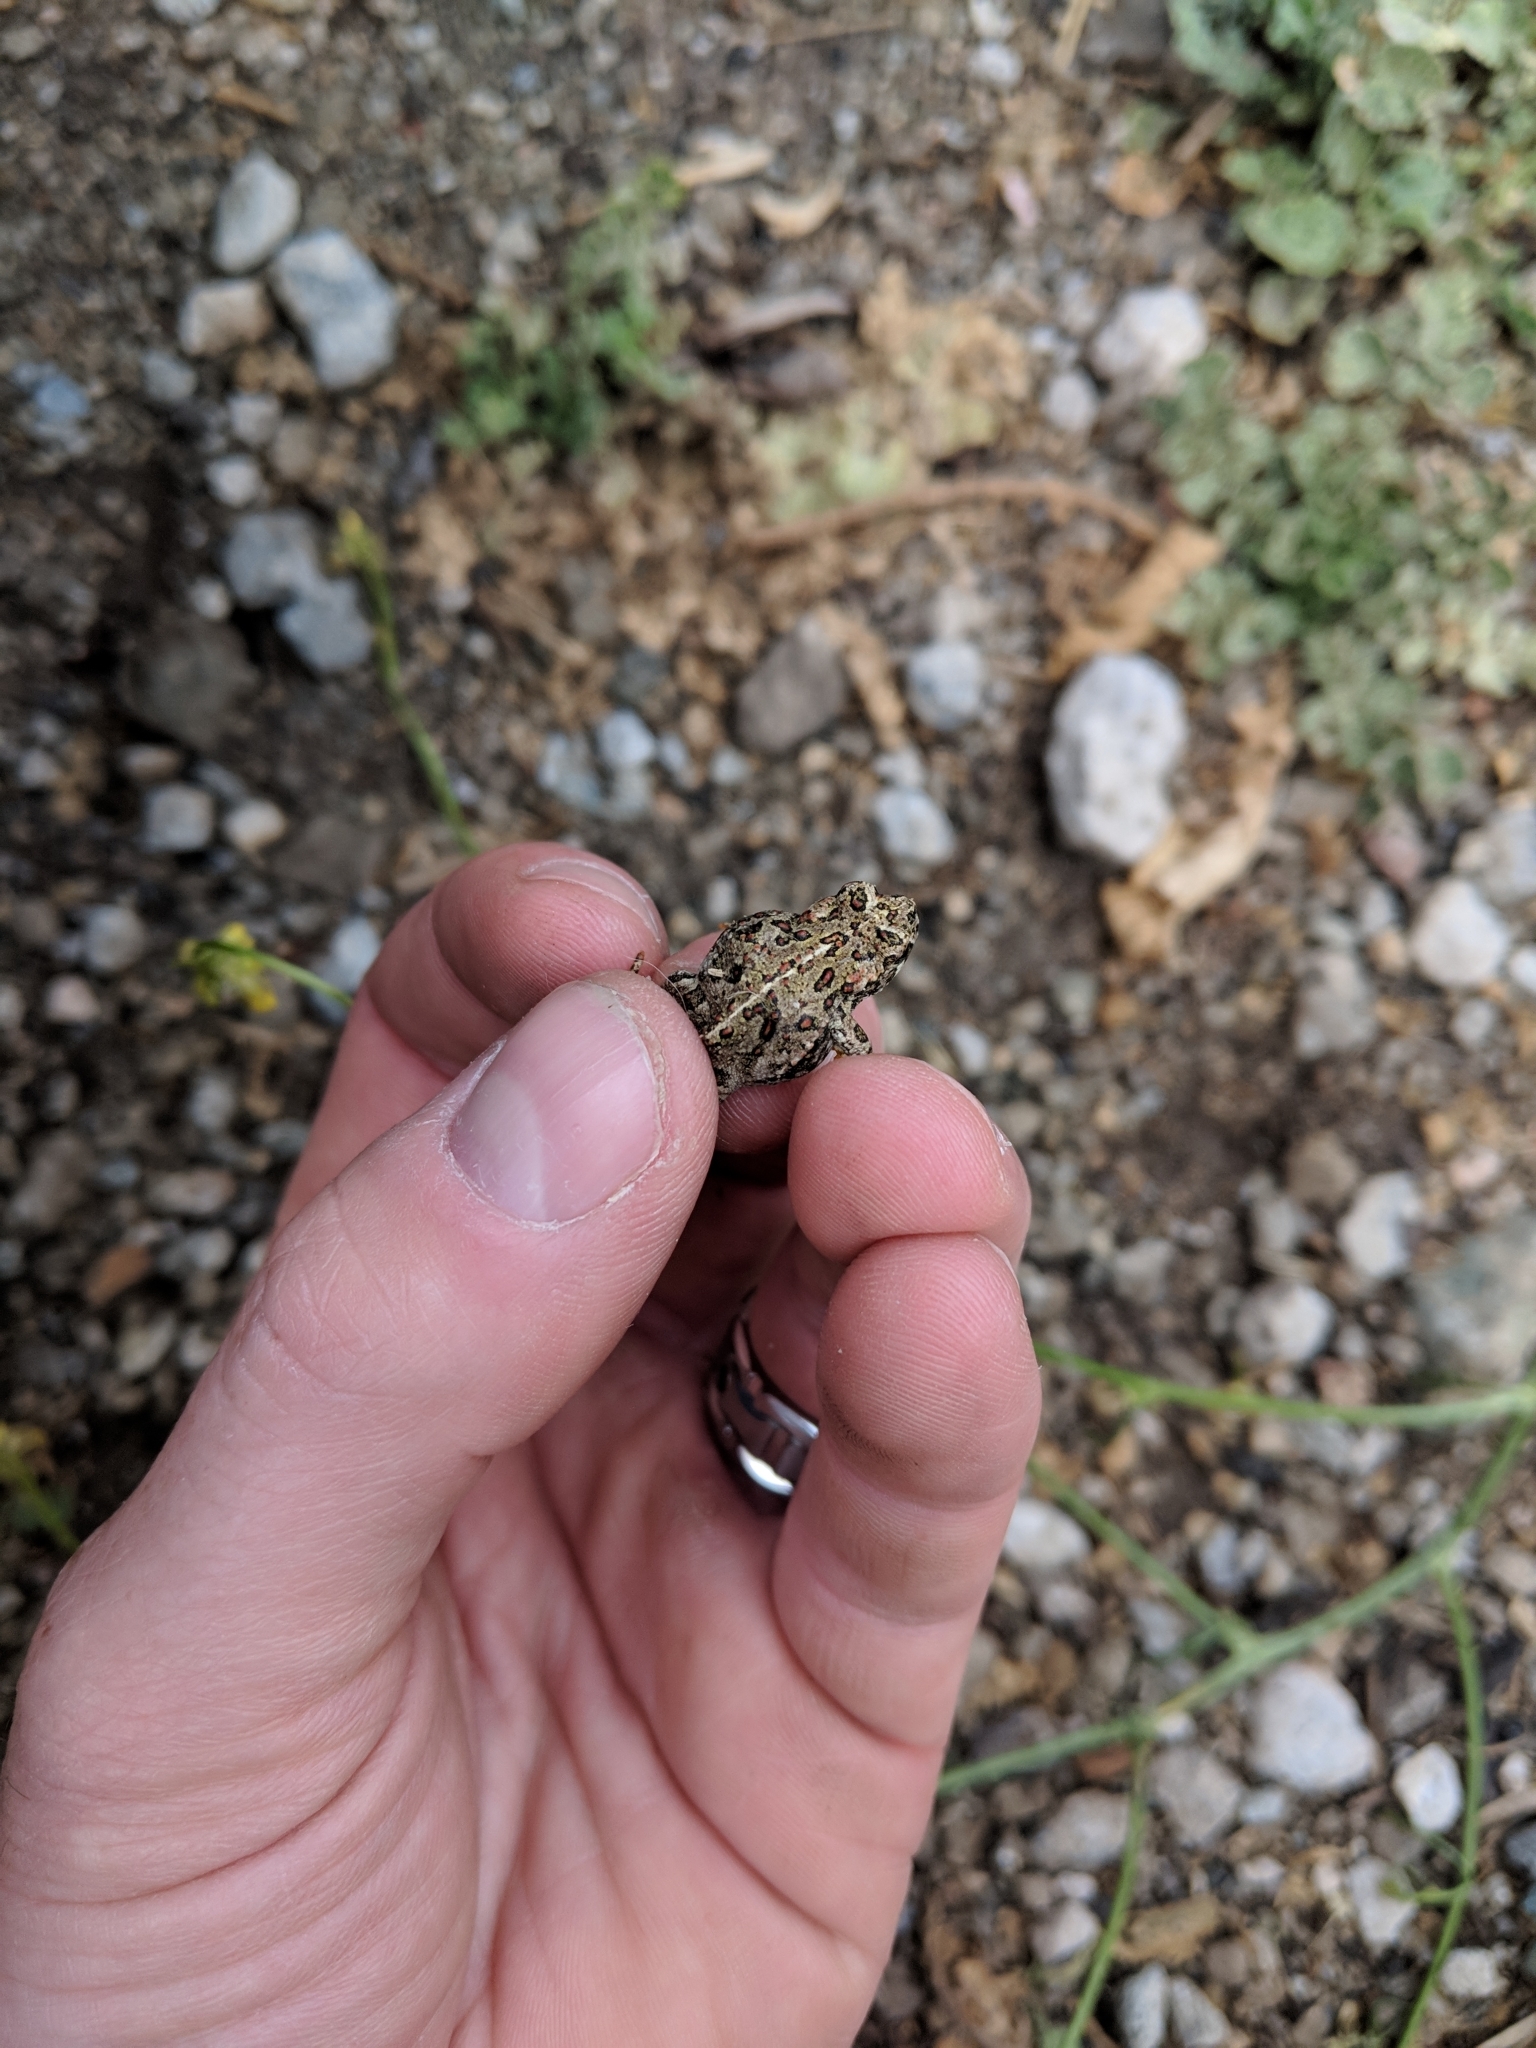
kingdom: Animalia
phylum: Chordata
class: Amphibia
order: Anura
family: Bufonidae
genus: Anaxyrus
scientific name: Anaxyrus boreas
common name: Western toad
